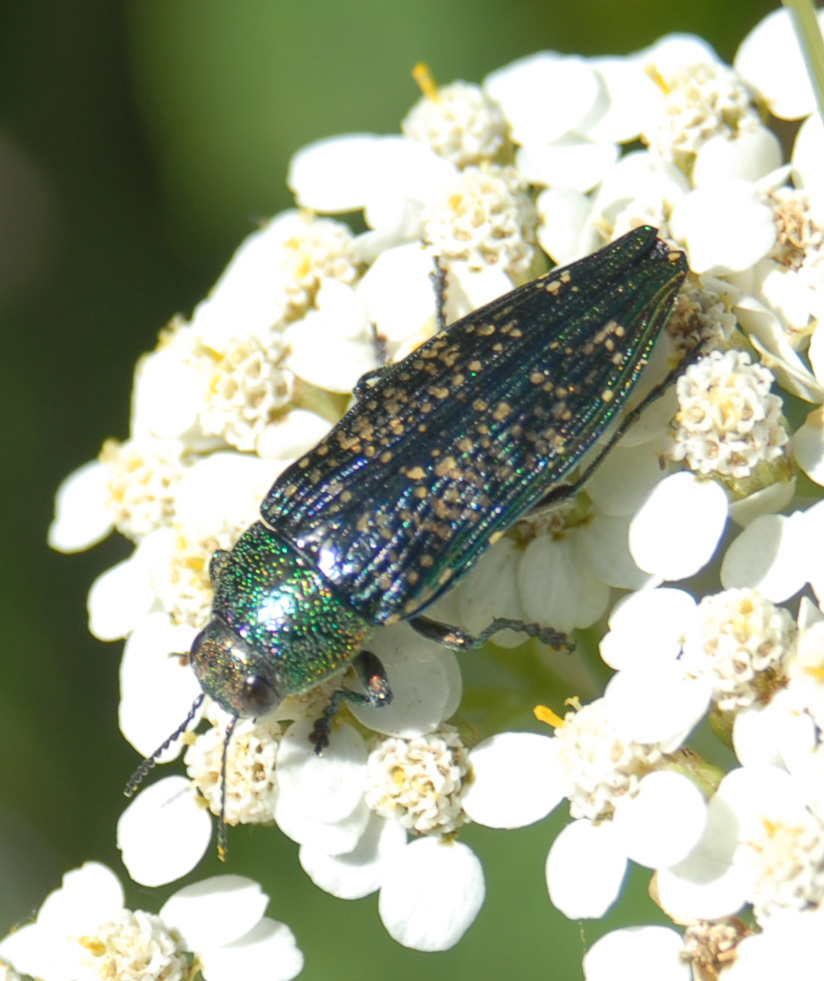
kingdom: Animalia
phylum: Arthropoda
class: Insecta
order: Coleoptera
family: Buprestidae
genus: Buprestis
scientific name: Buprestis confluenta
